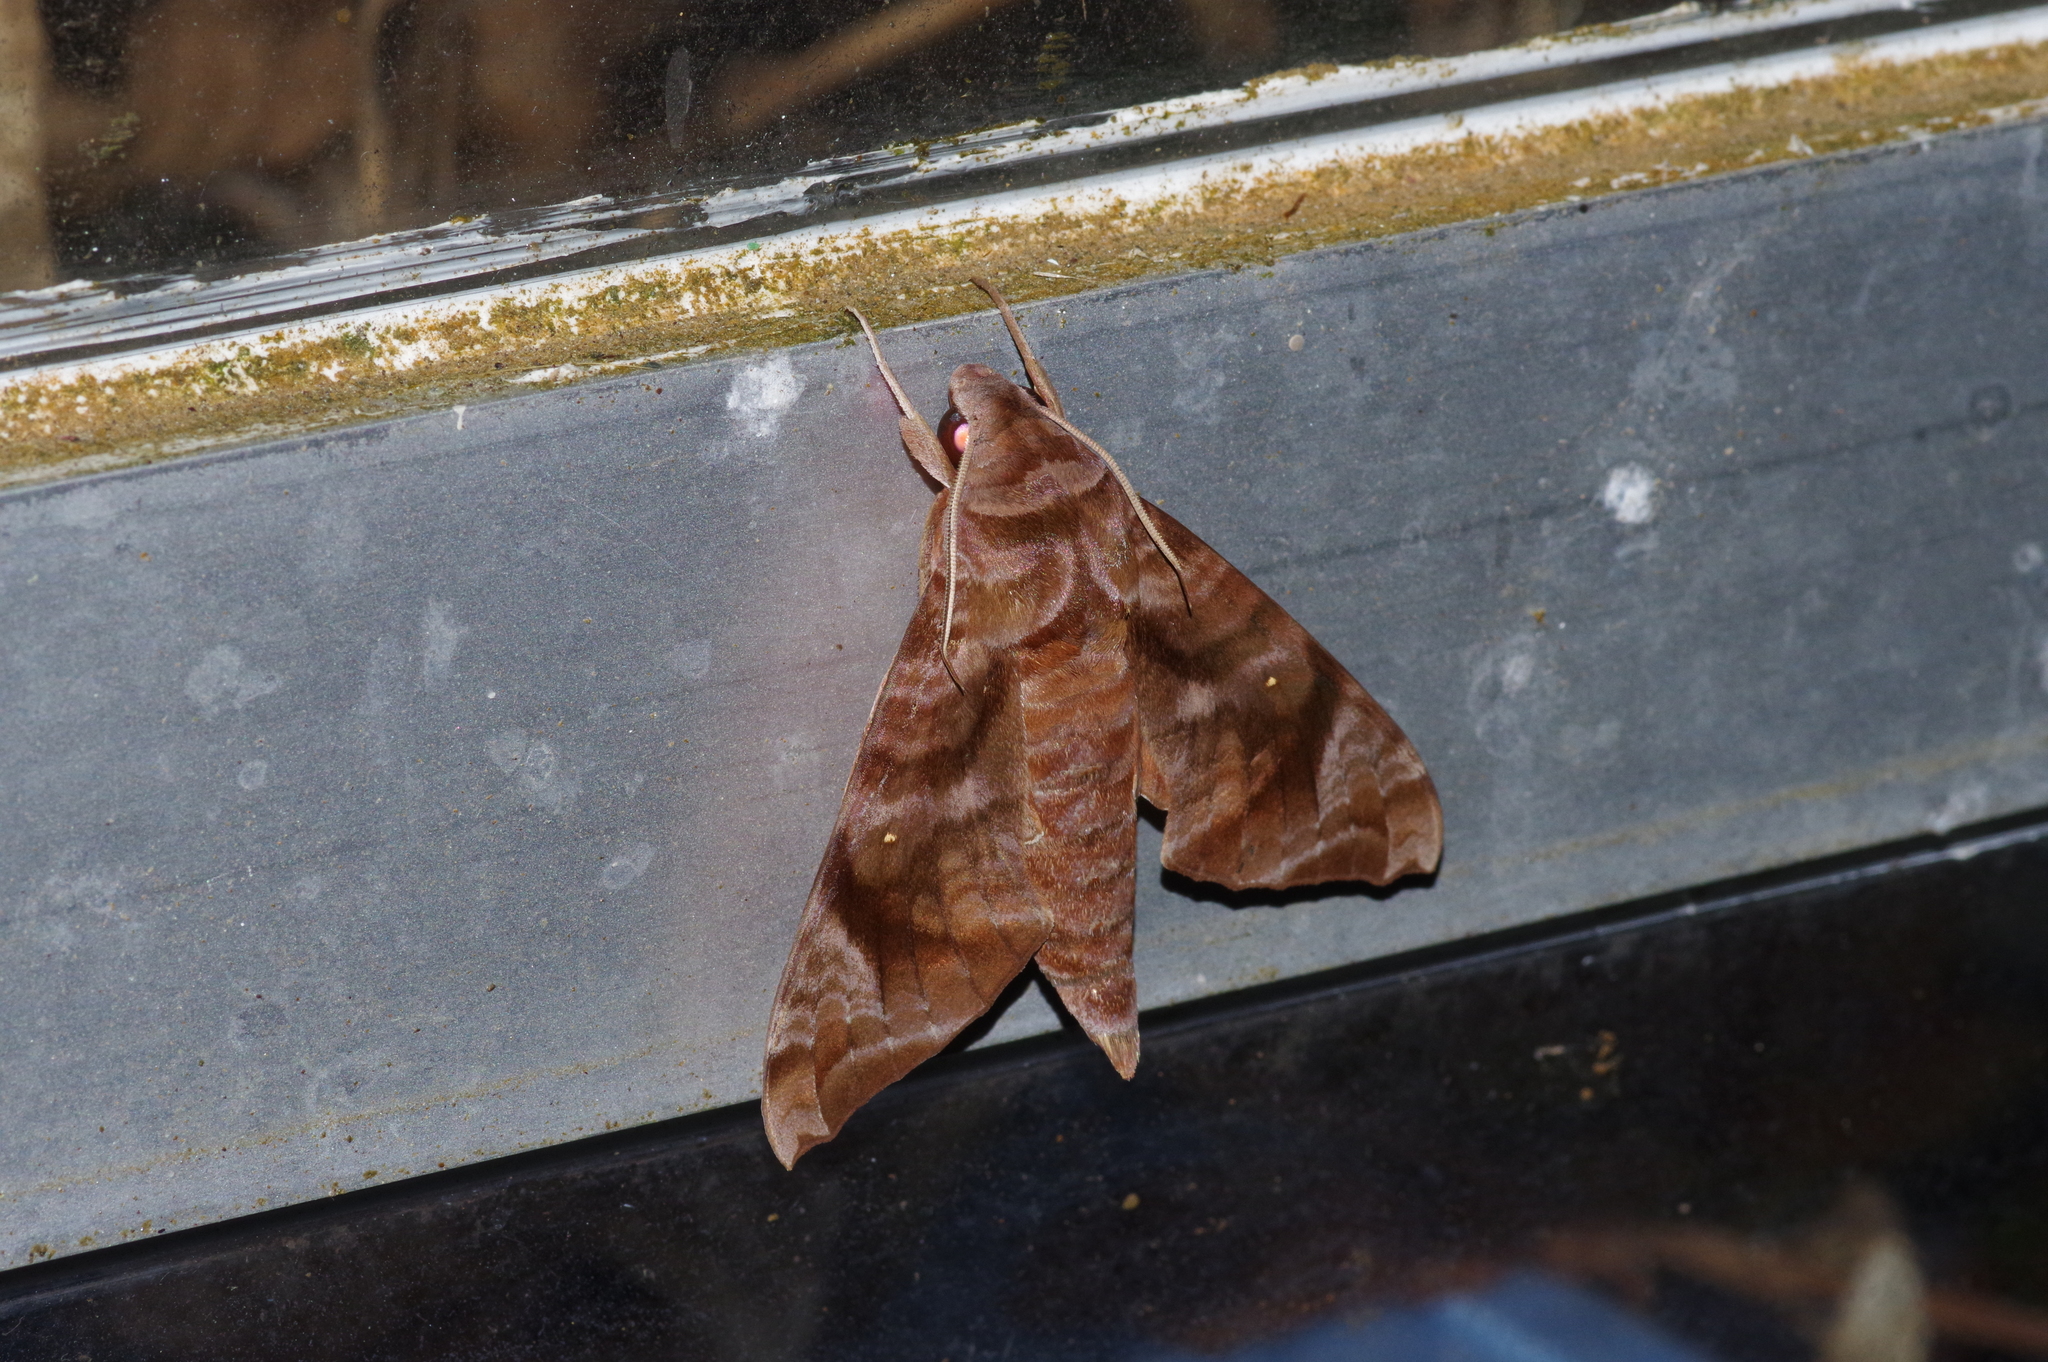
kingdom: Animalia
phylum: Arthropoda
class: Insecta
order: Lepidoptera
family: Sphingidae
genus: Acosmeryx
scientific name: Acosmeryx castanea
